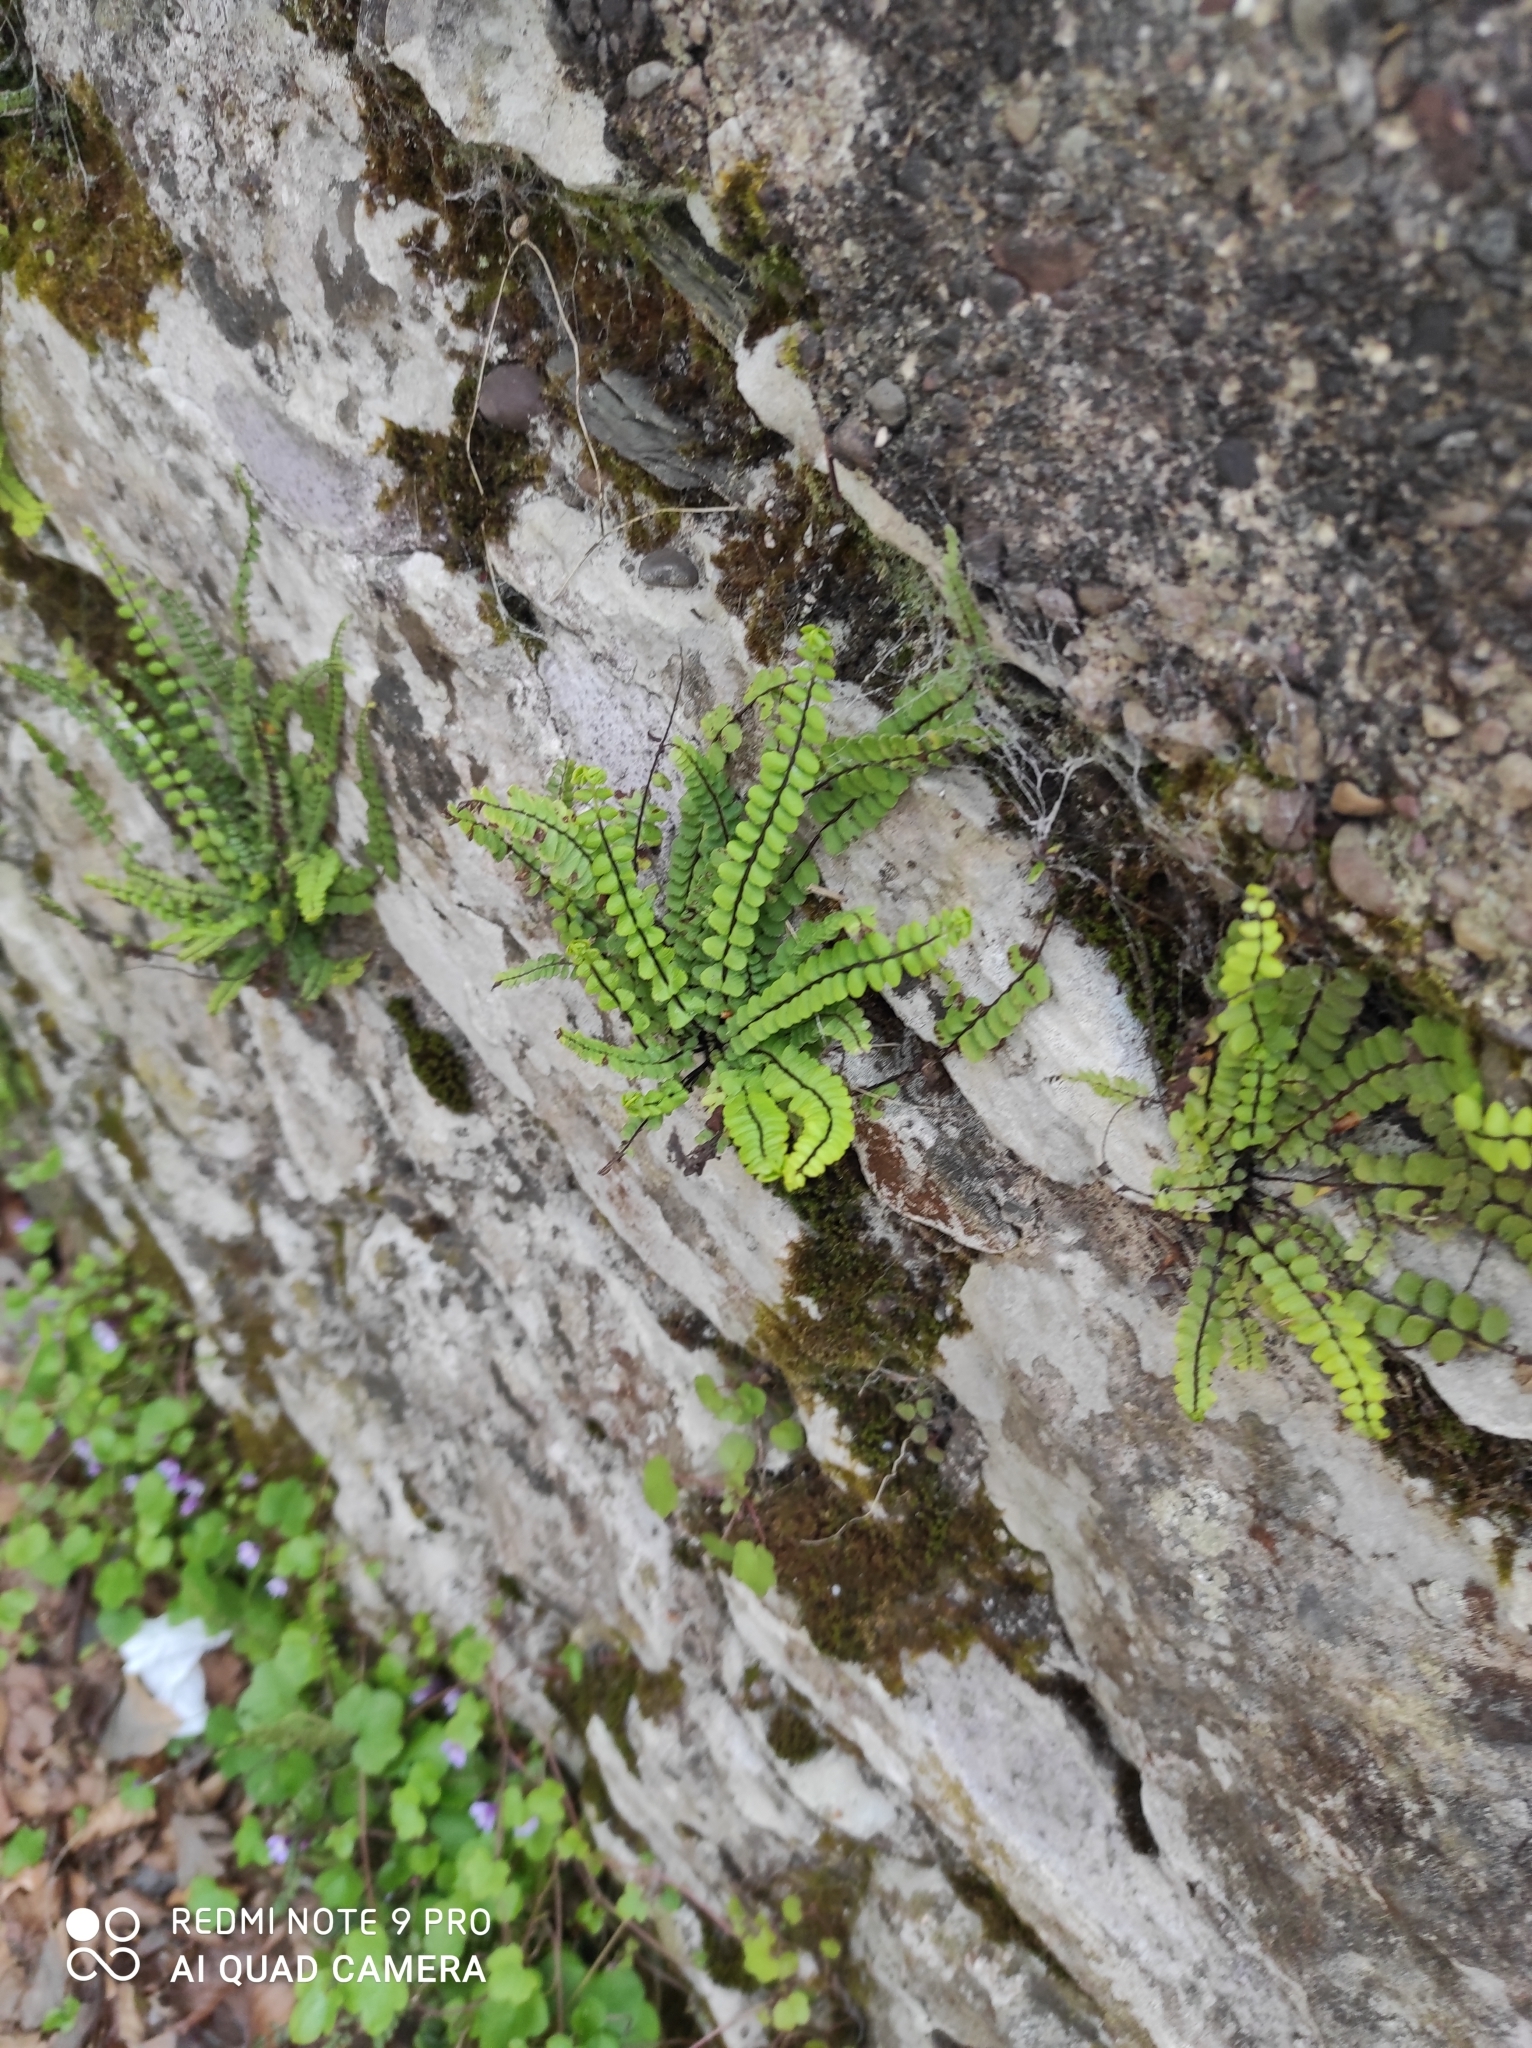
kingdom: Plantae
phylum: Tracheophyta
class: Polypodiopsida
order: Polypodiales
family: Aspleniaceae
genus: Asplenium
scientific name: Asplenium trichomanes
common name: Maidenhair spleenwort
